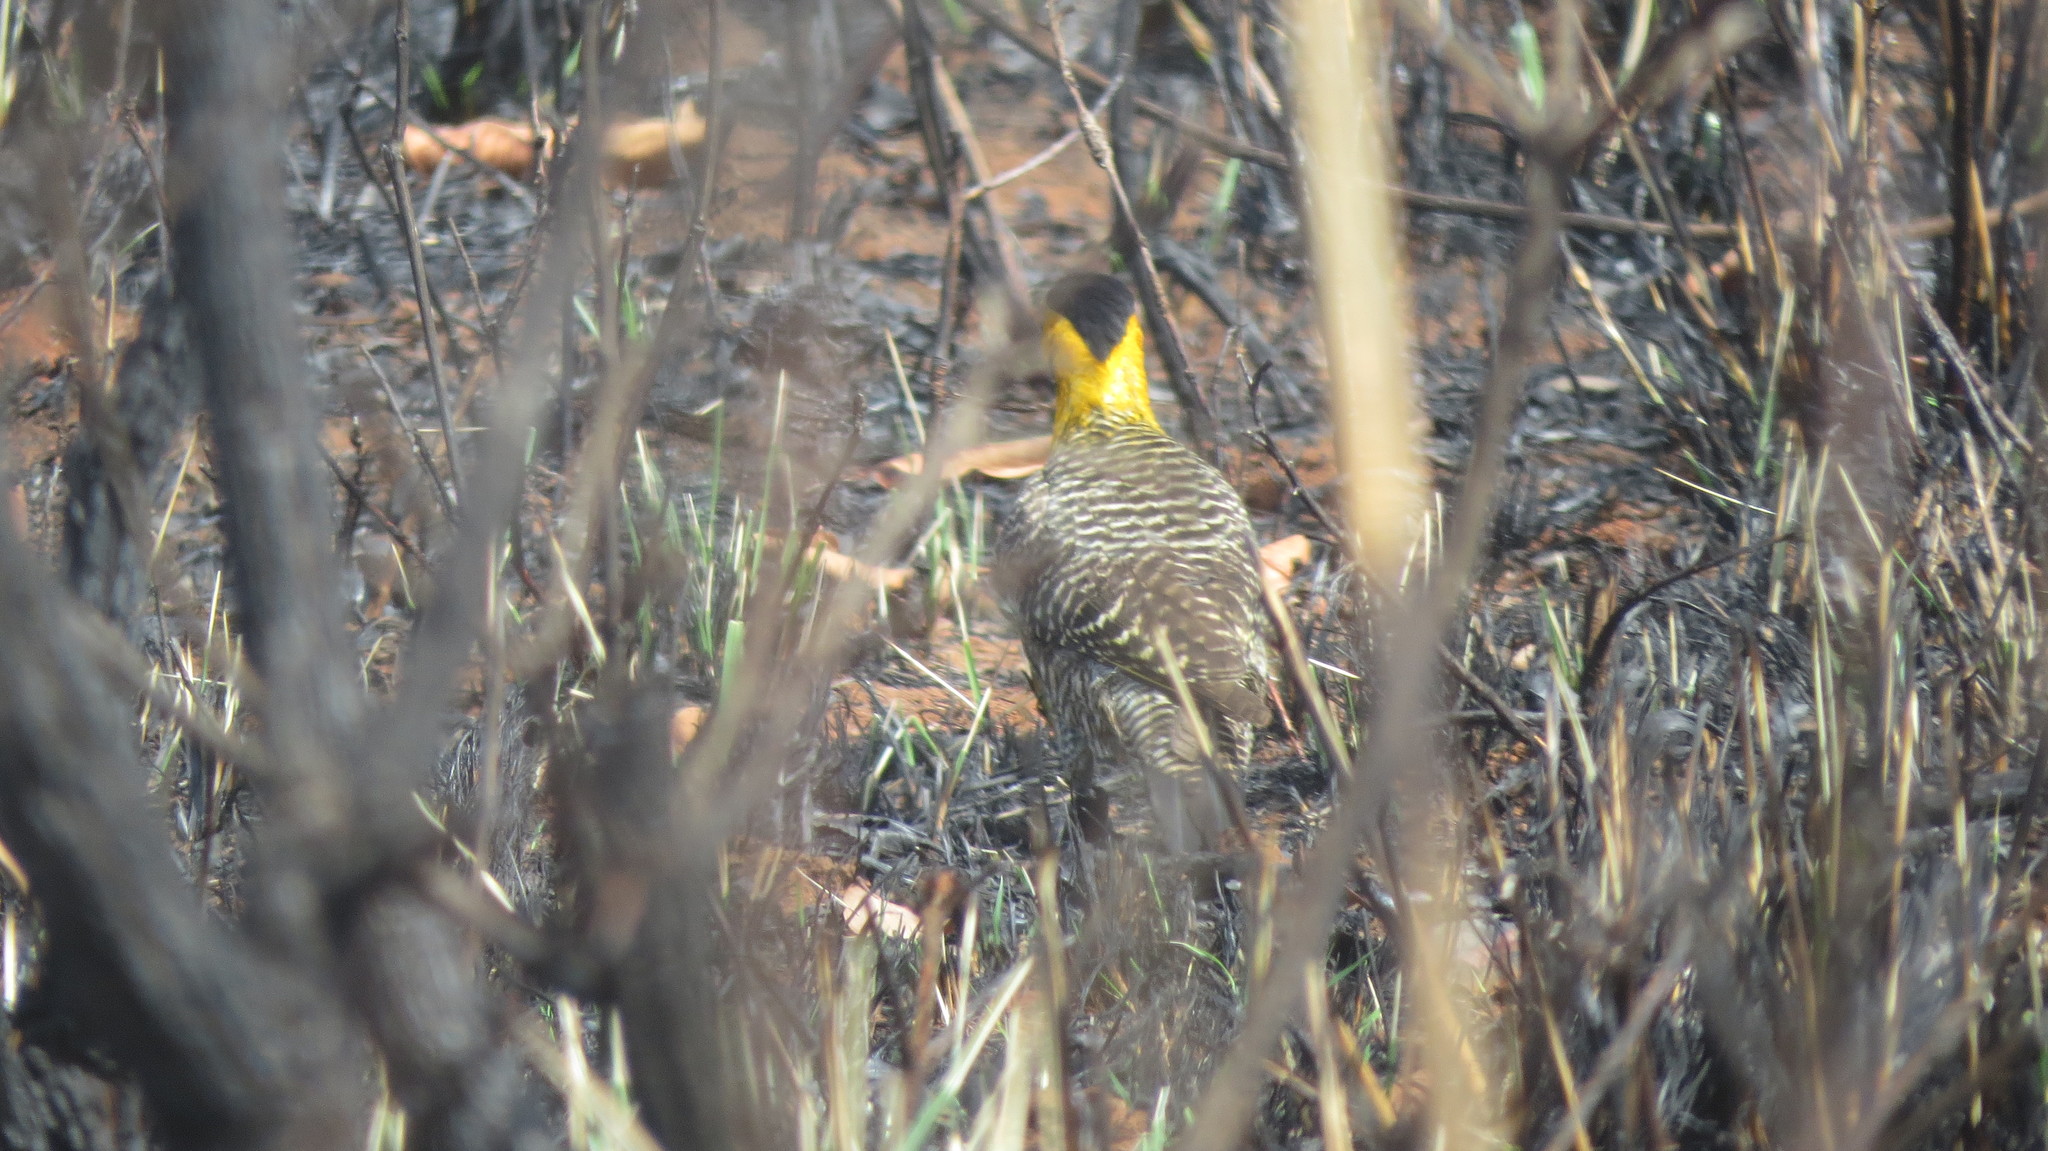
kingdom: Animalia
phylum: Chordata
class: Aves
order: Piciformes
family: Picidae
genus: Colaptes
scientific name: Colaptes campestris
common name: Campo flicker
